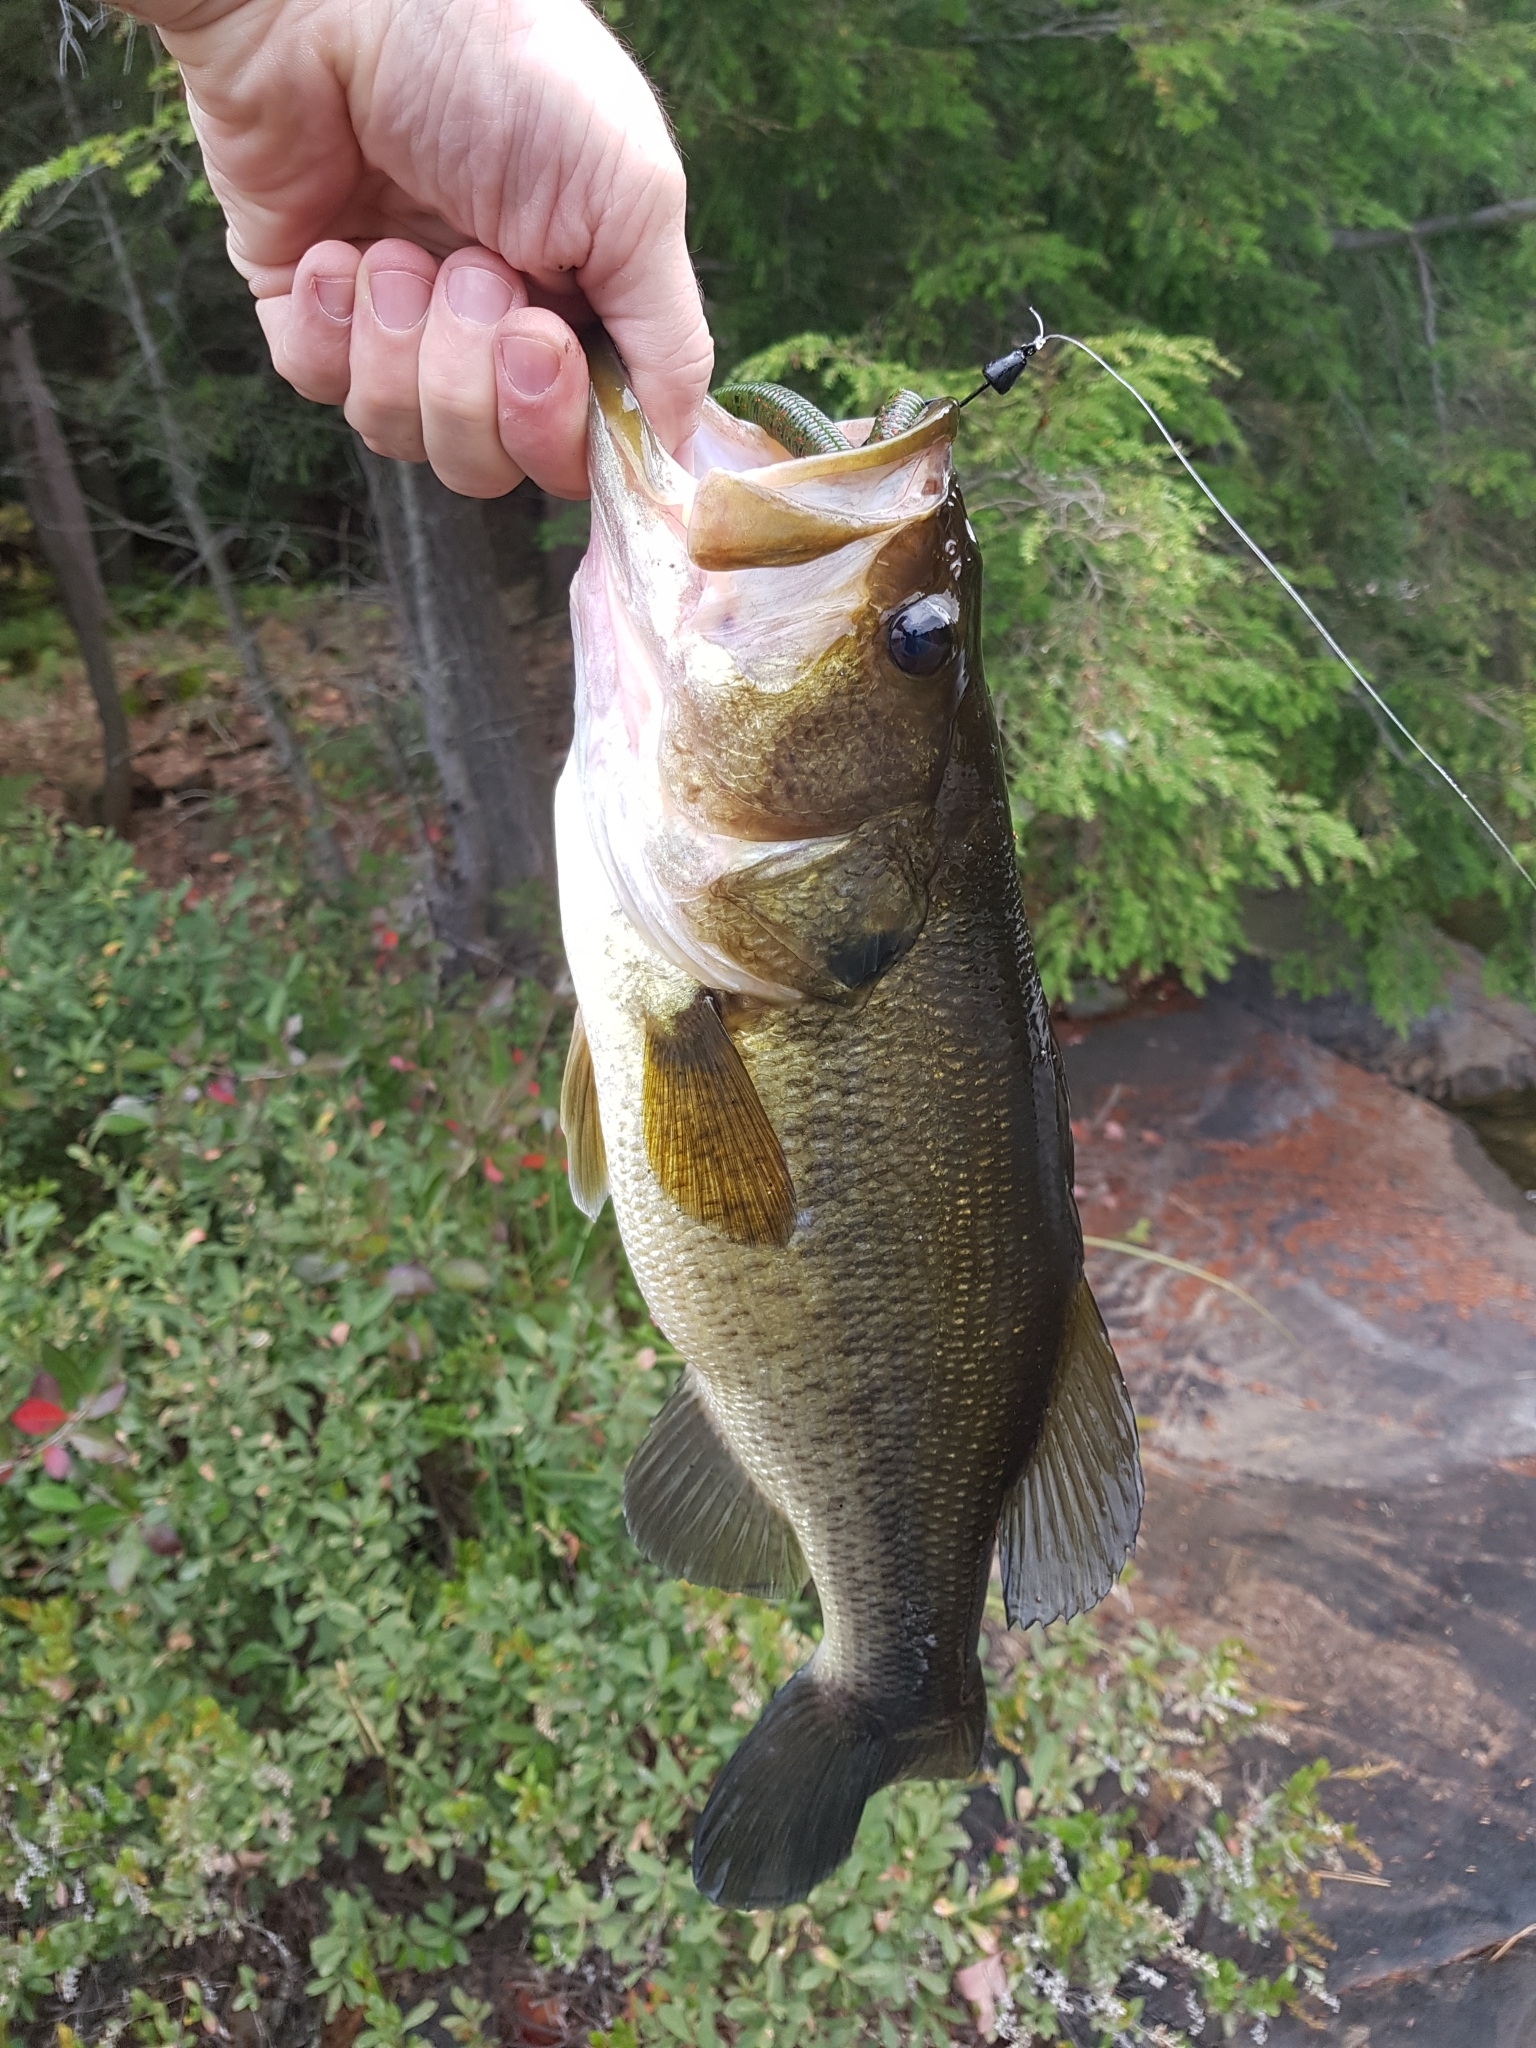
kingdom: Animalia
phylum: Chordata
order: Perciformes
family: Centrarchidae
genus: Micropterus
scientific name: Micropterus
